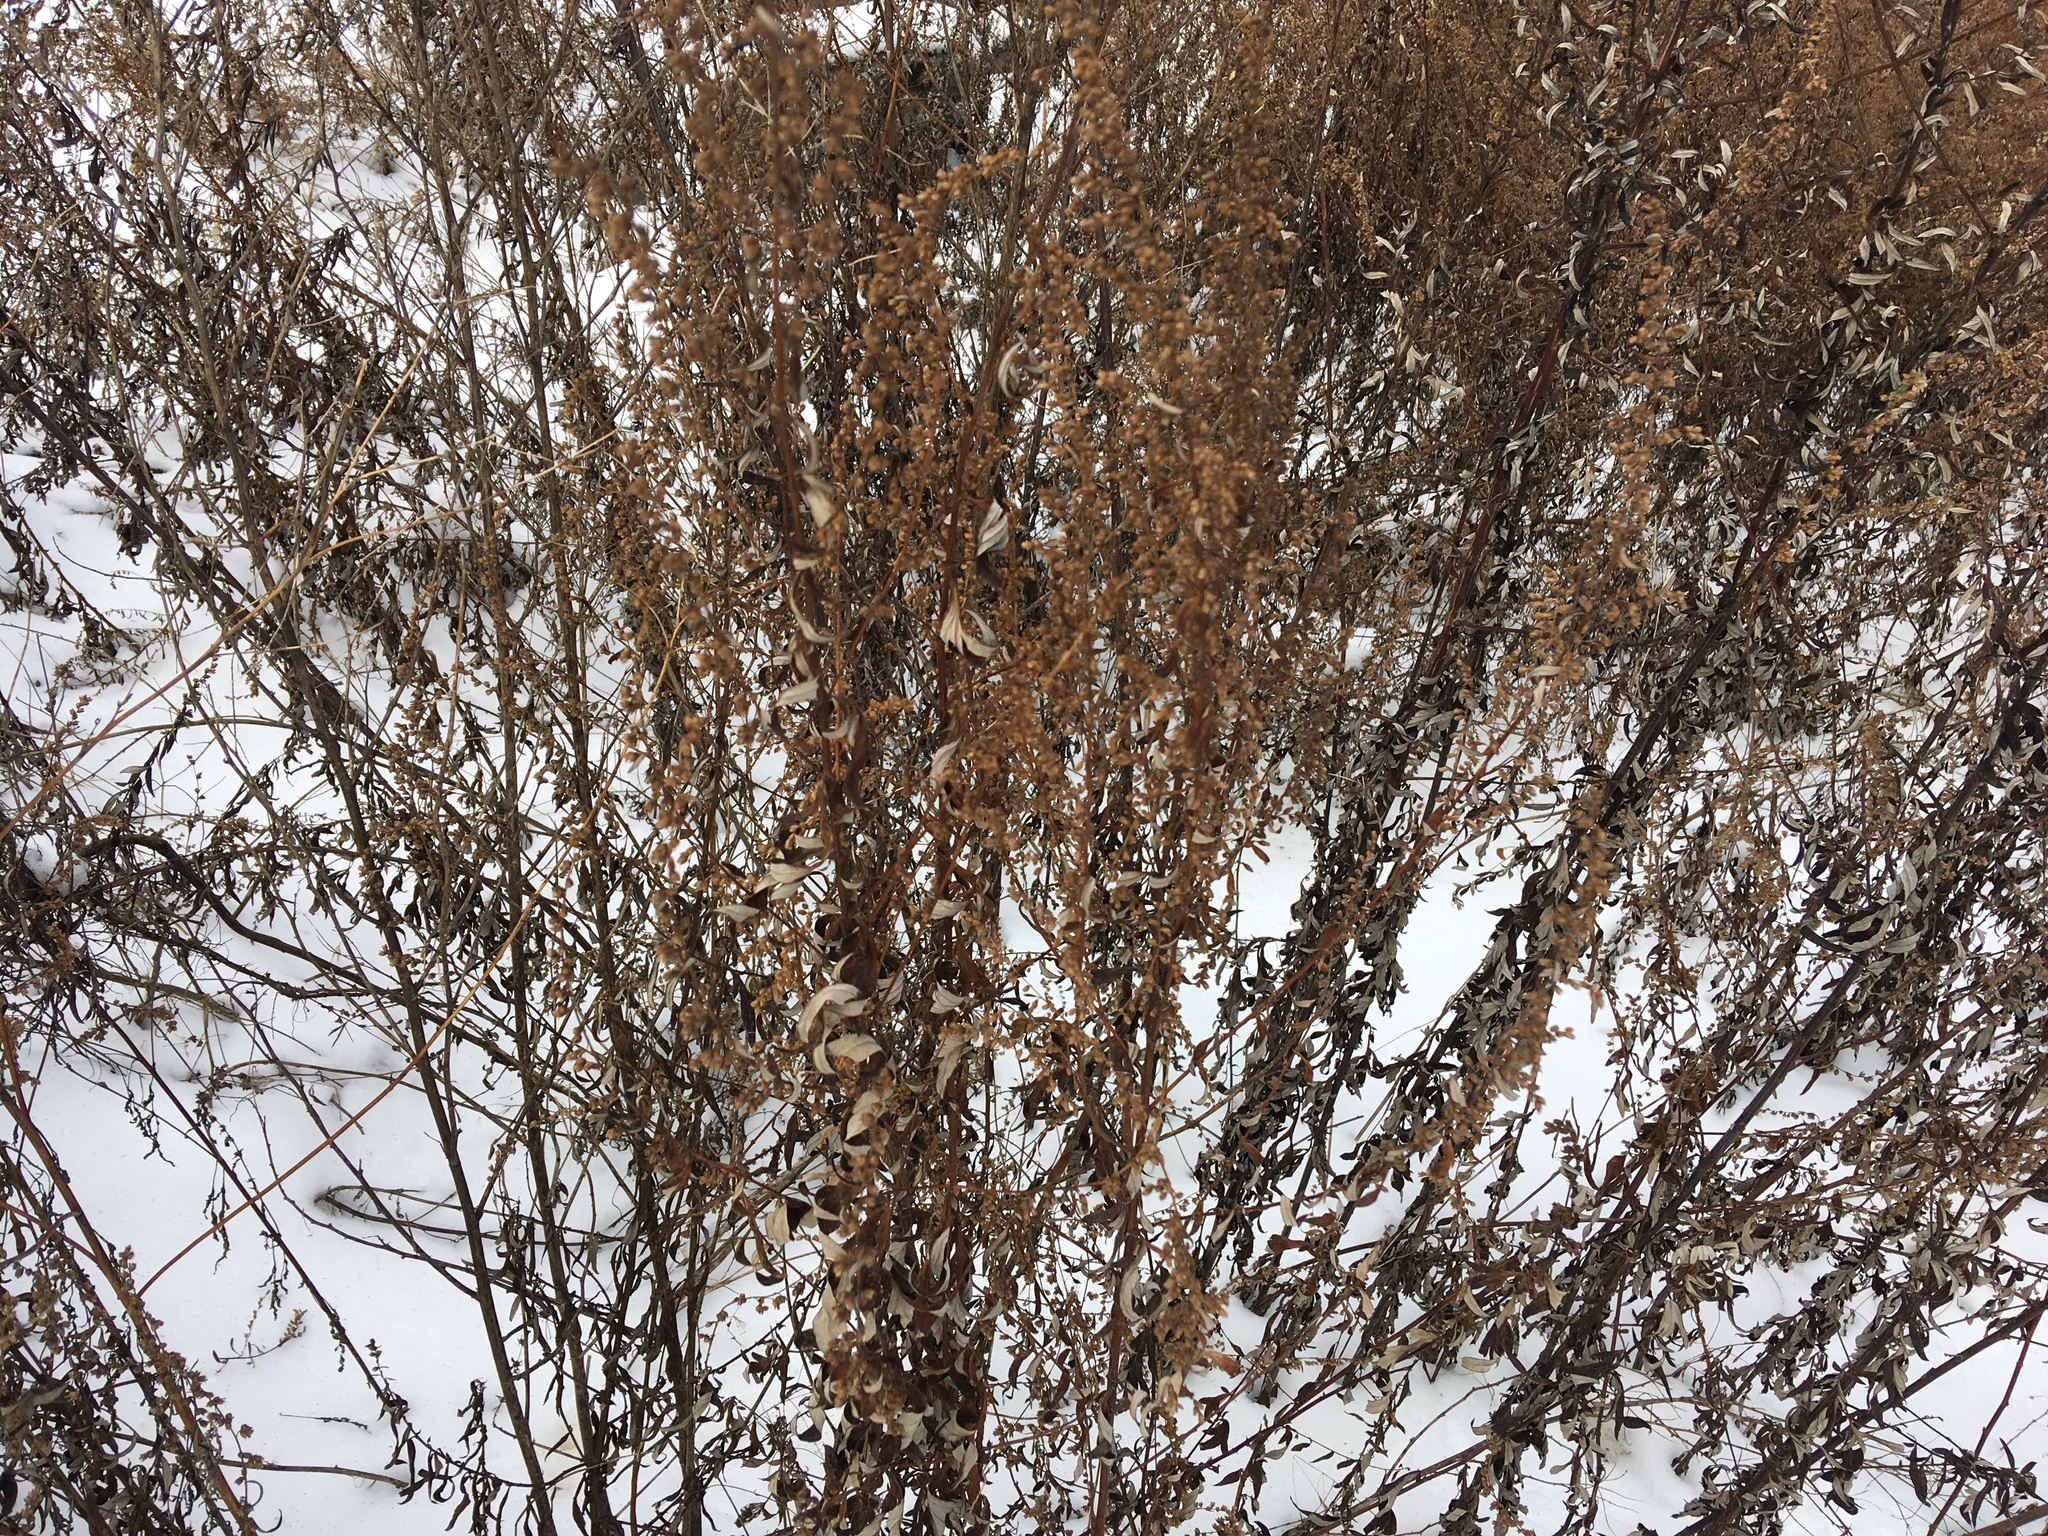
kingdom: Plantae
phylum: Tracheophyta
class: Magnoliopsida
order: Asterales
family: Asteraceae
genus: Artemisia
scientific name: Artemisia vulgaris
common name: Mugwort
